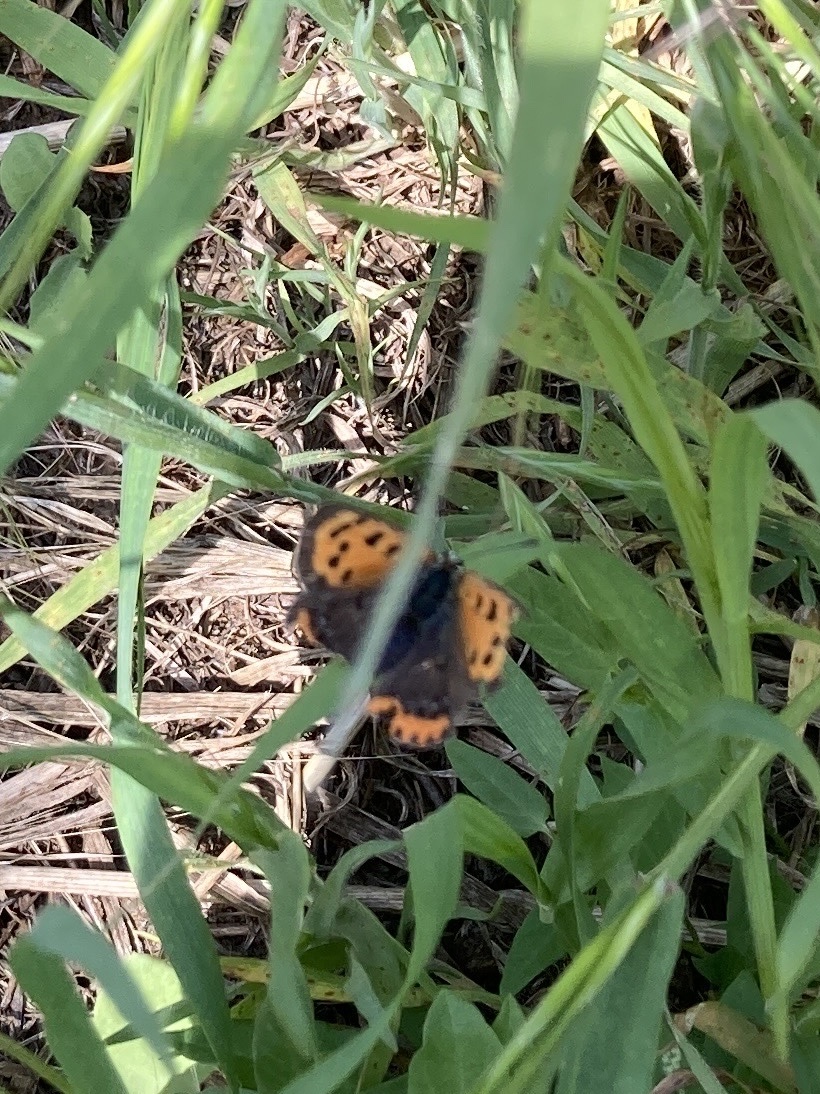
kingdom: Animalia
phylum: Arthropoda
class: Insecta
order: Lepidoptera
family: Lycaenidae
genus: Lycaena
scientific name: Lycaena phlaeas
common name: Small copper
